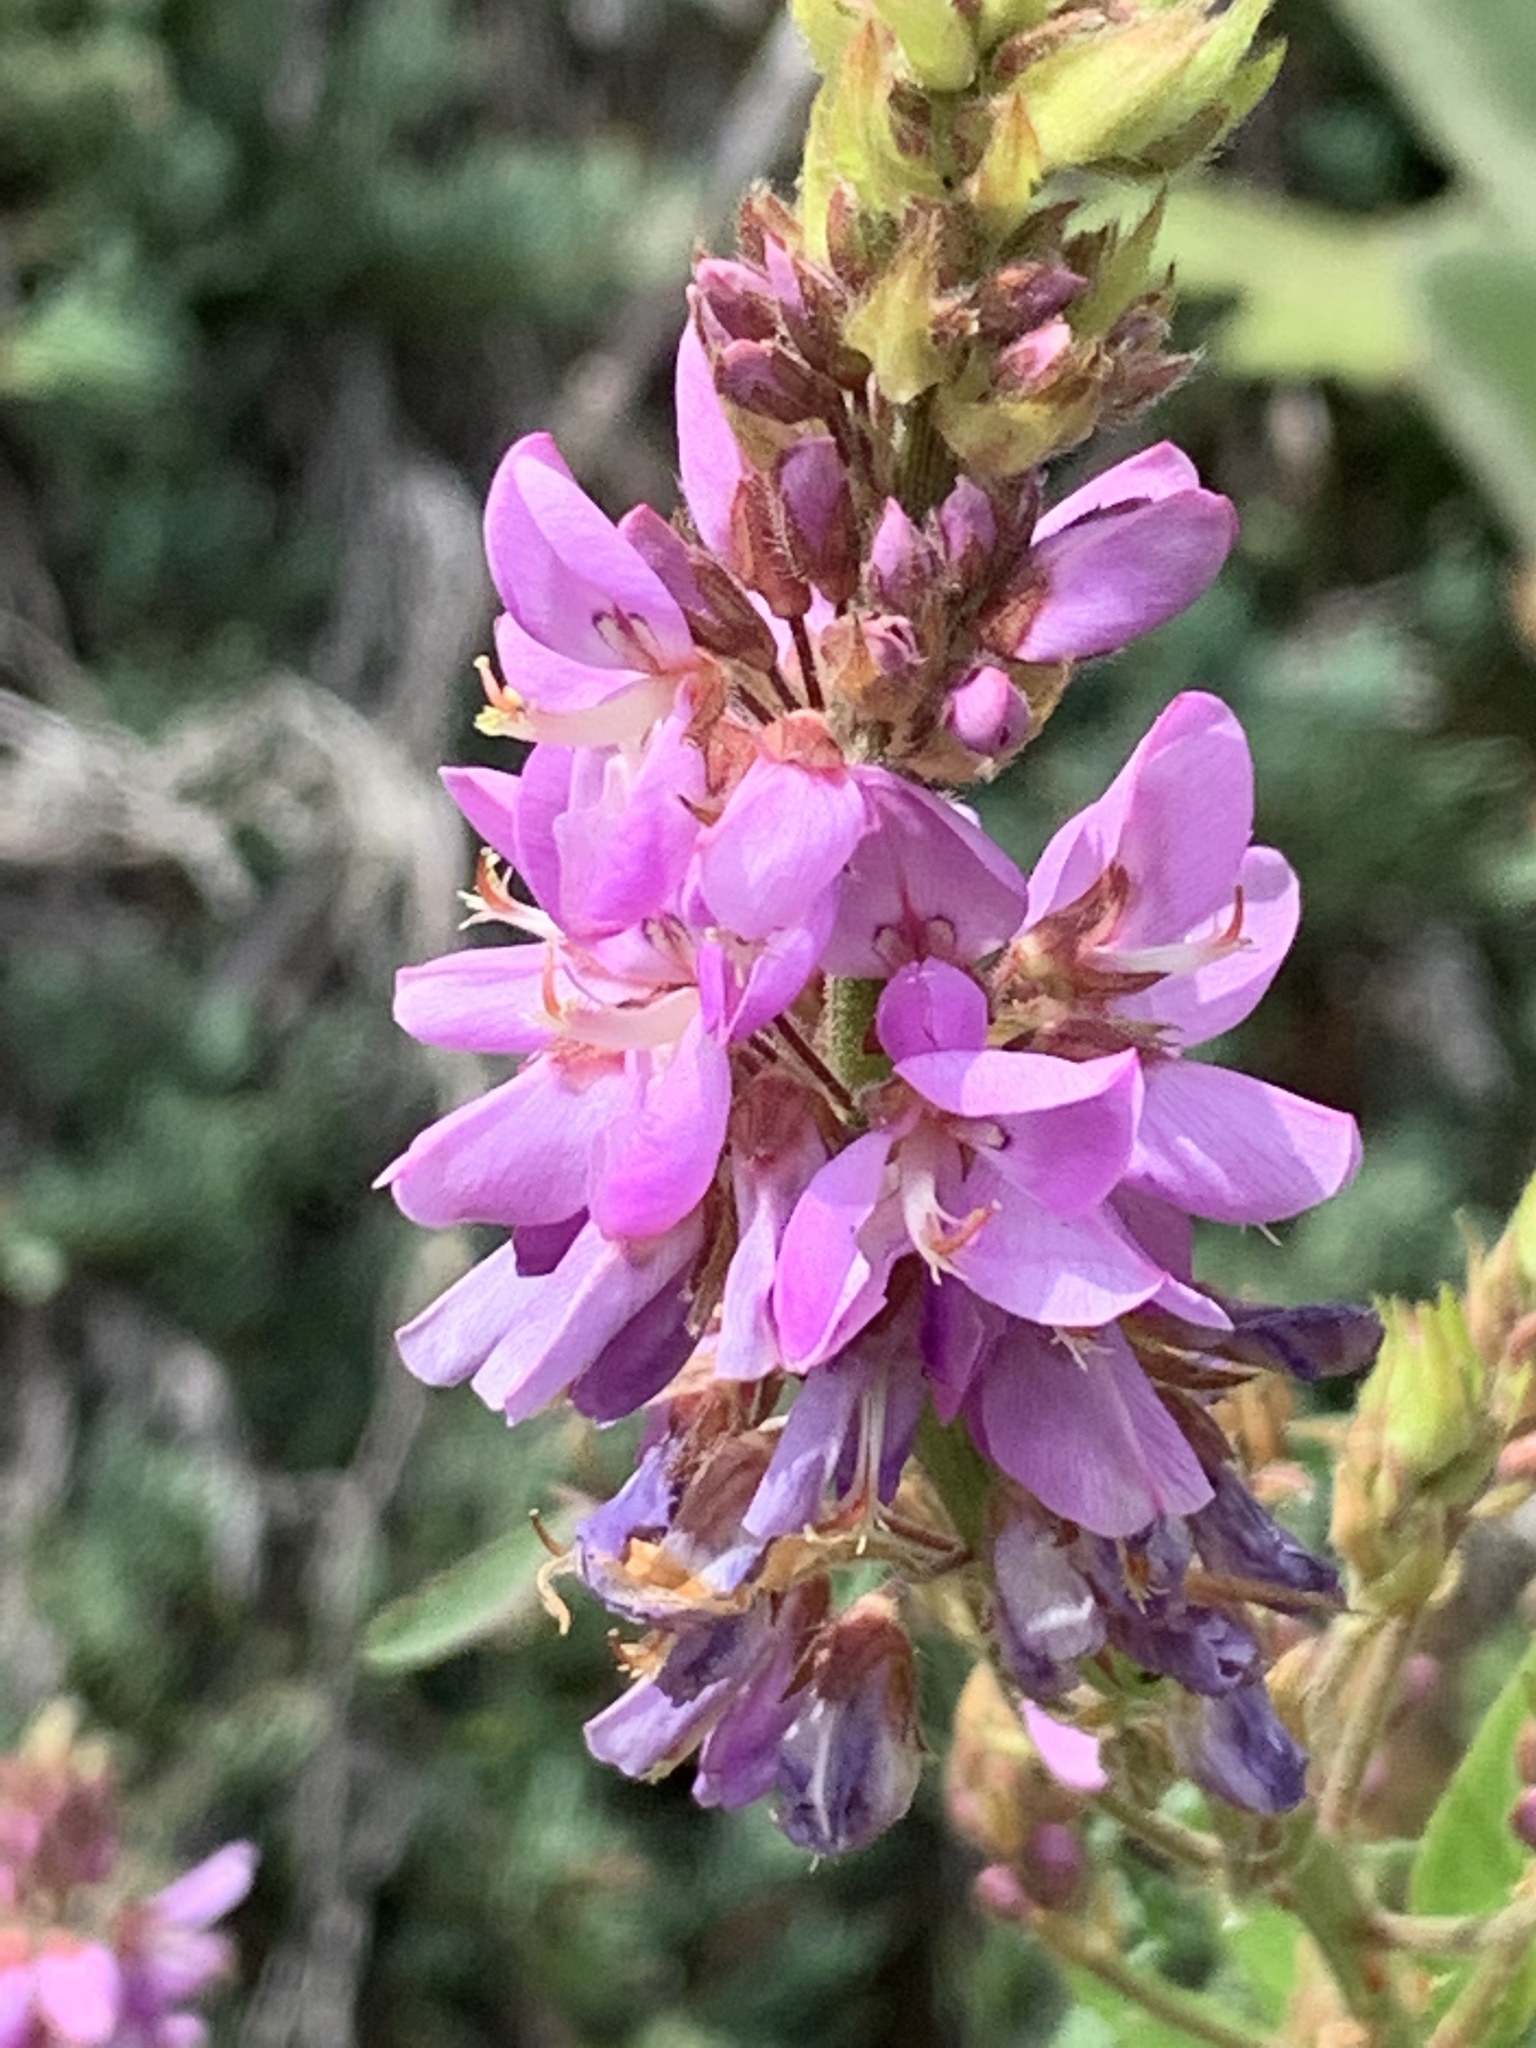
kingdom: Plantae
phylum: Tracheophyta
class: Magnoliopsida
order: Fabales
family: Fabaceae
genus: Desmodium
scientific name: Desmodium canadense
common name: Canada tick-trefoil
